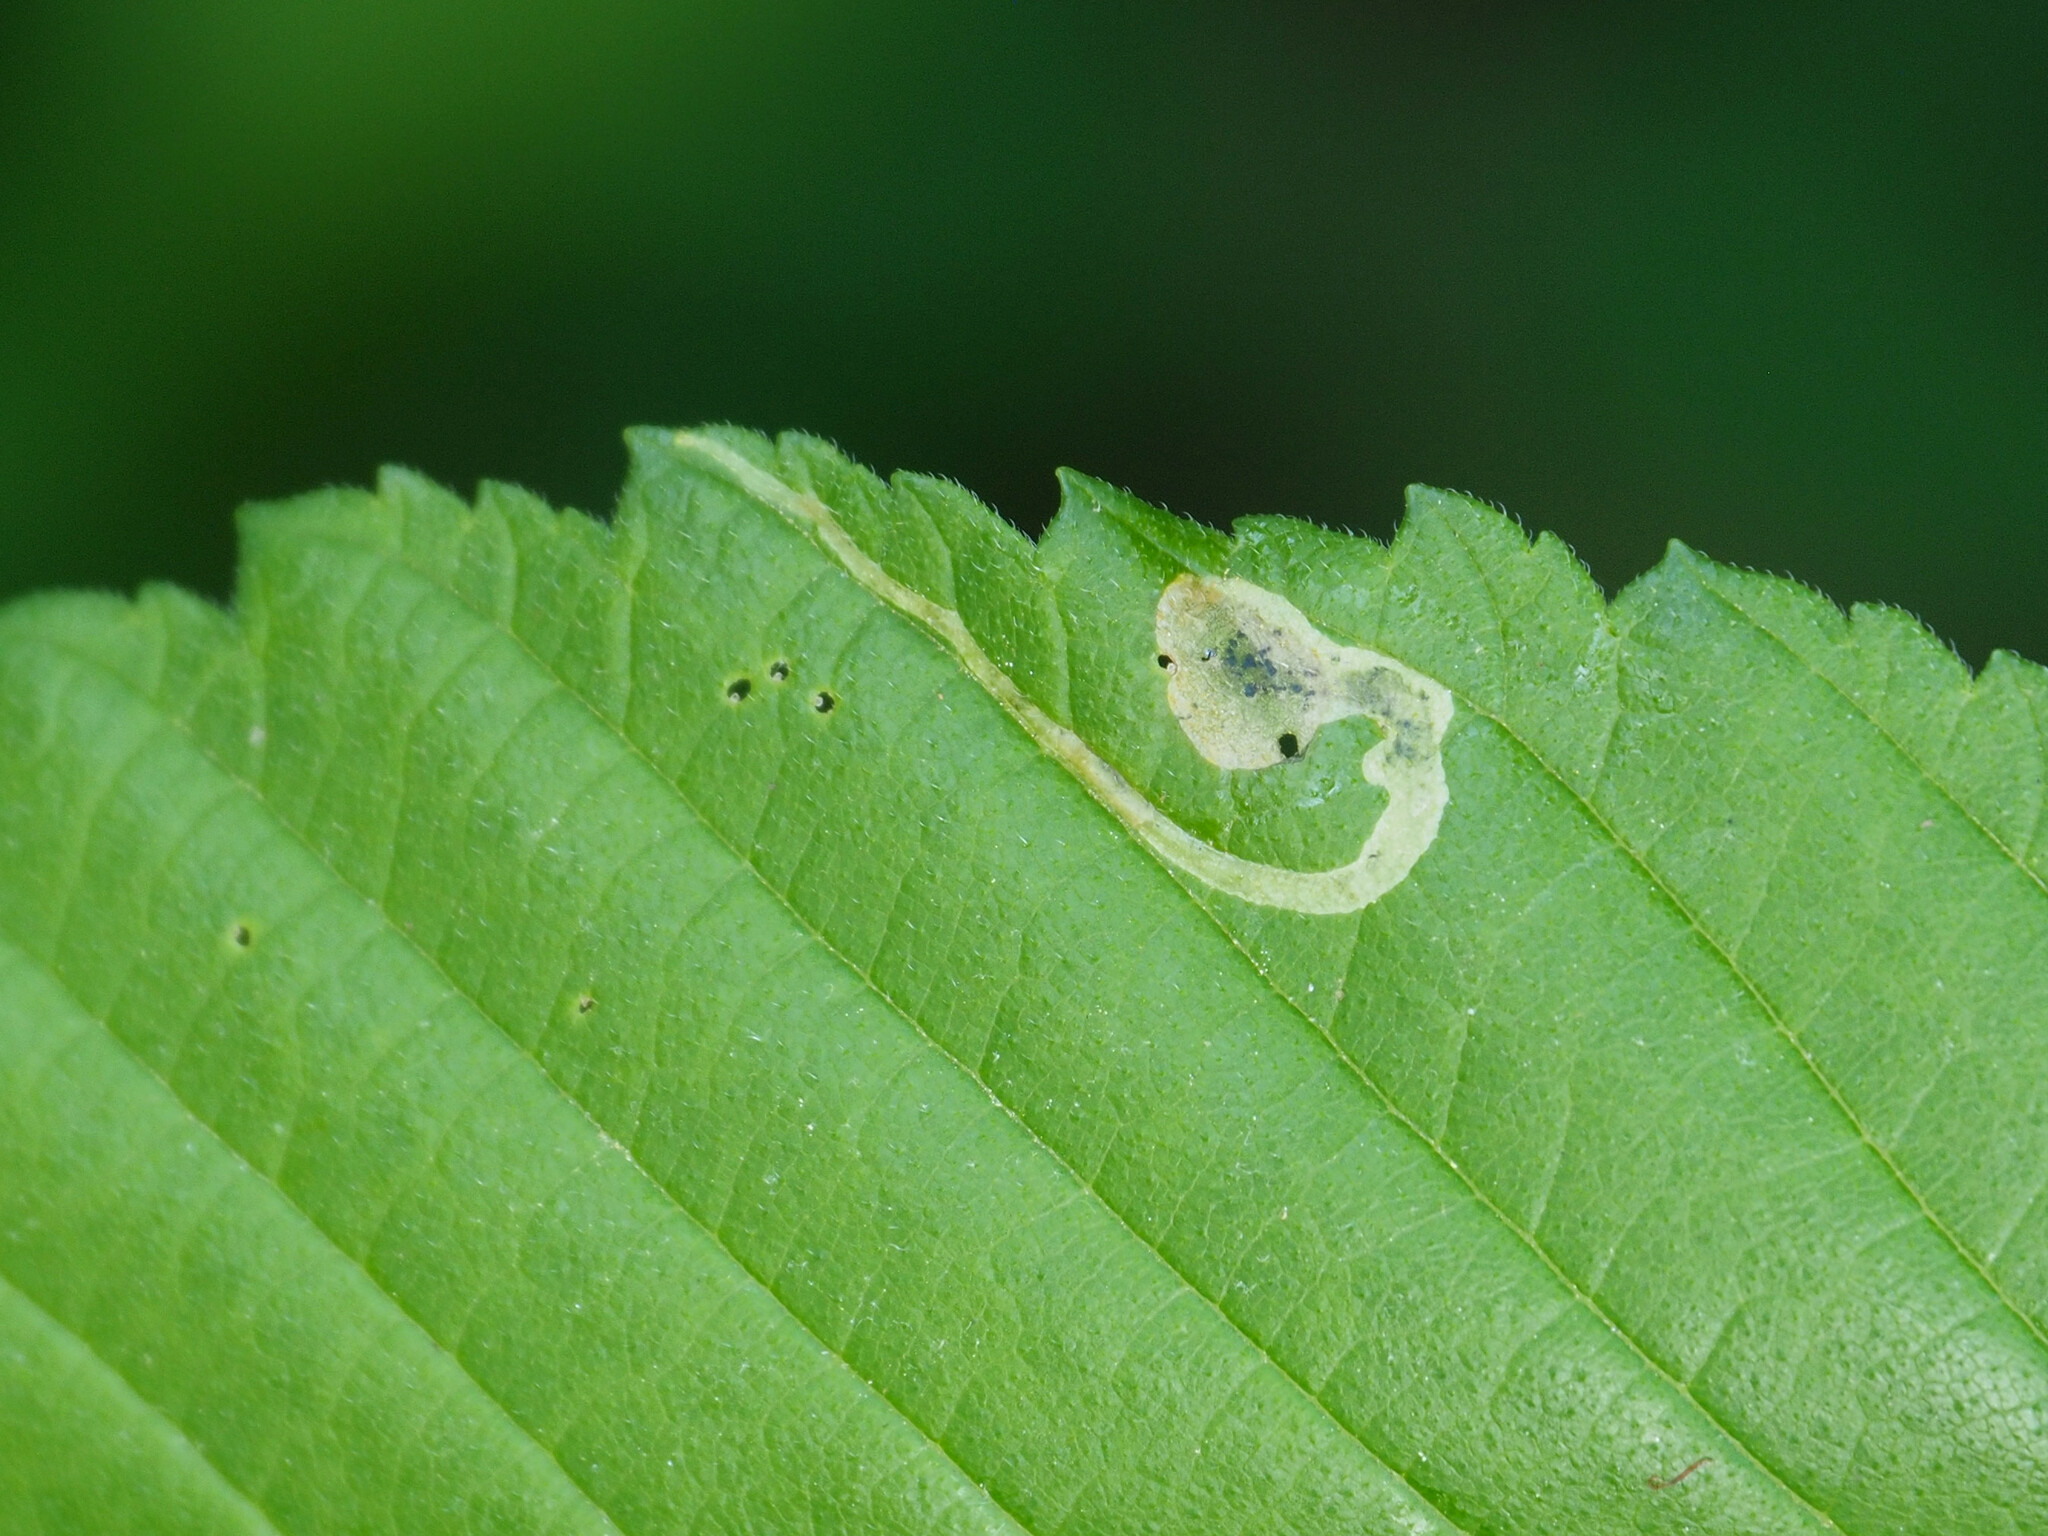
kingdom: Animalia
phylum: Arthropoda
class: Insecta
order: Diptera
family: Agromyzidae
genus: Agromyza
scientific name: Agromyza aristata
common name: Elm agromyzid leafminer
